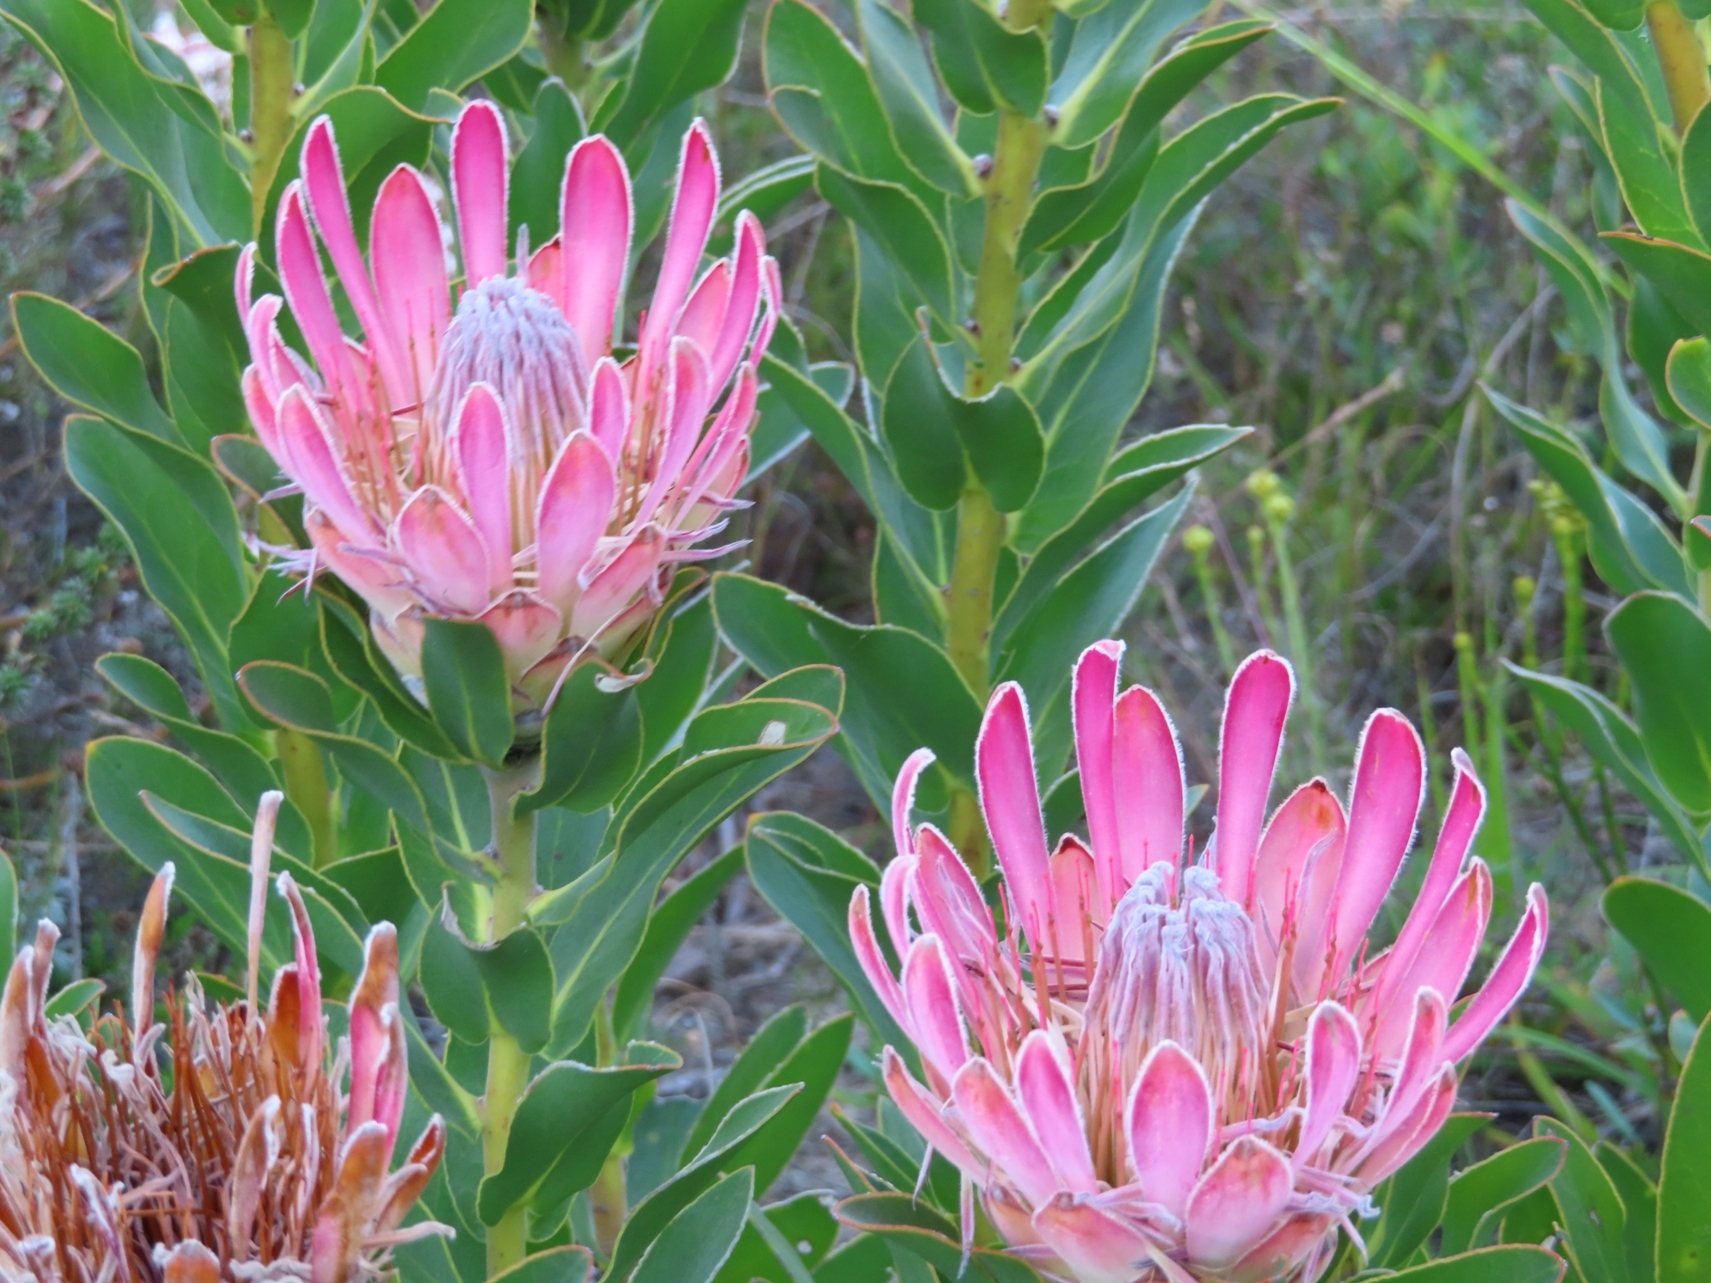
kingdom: Plantae
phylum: Tracheophyta
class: Magnoliopsida
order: Proteales
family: Proteaceae
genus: Protea
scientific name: Protea compacta
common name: Bot river protea
